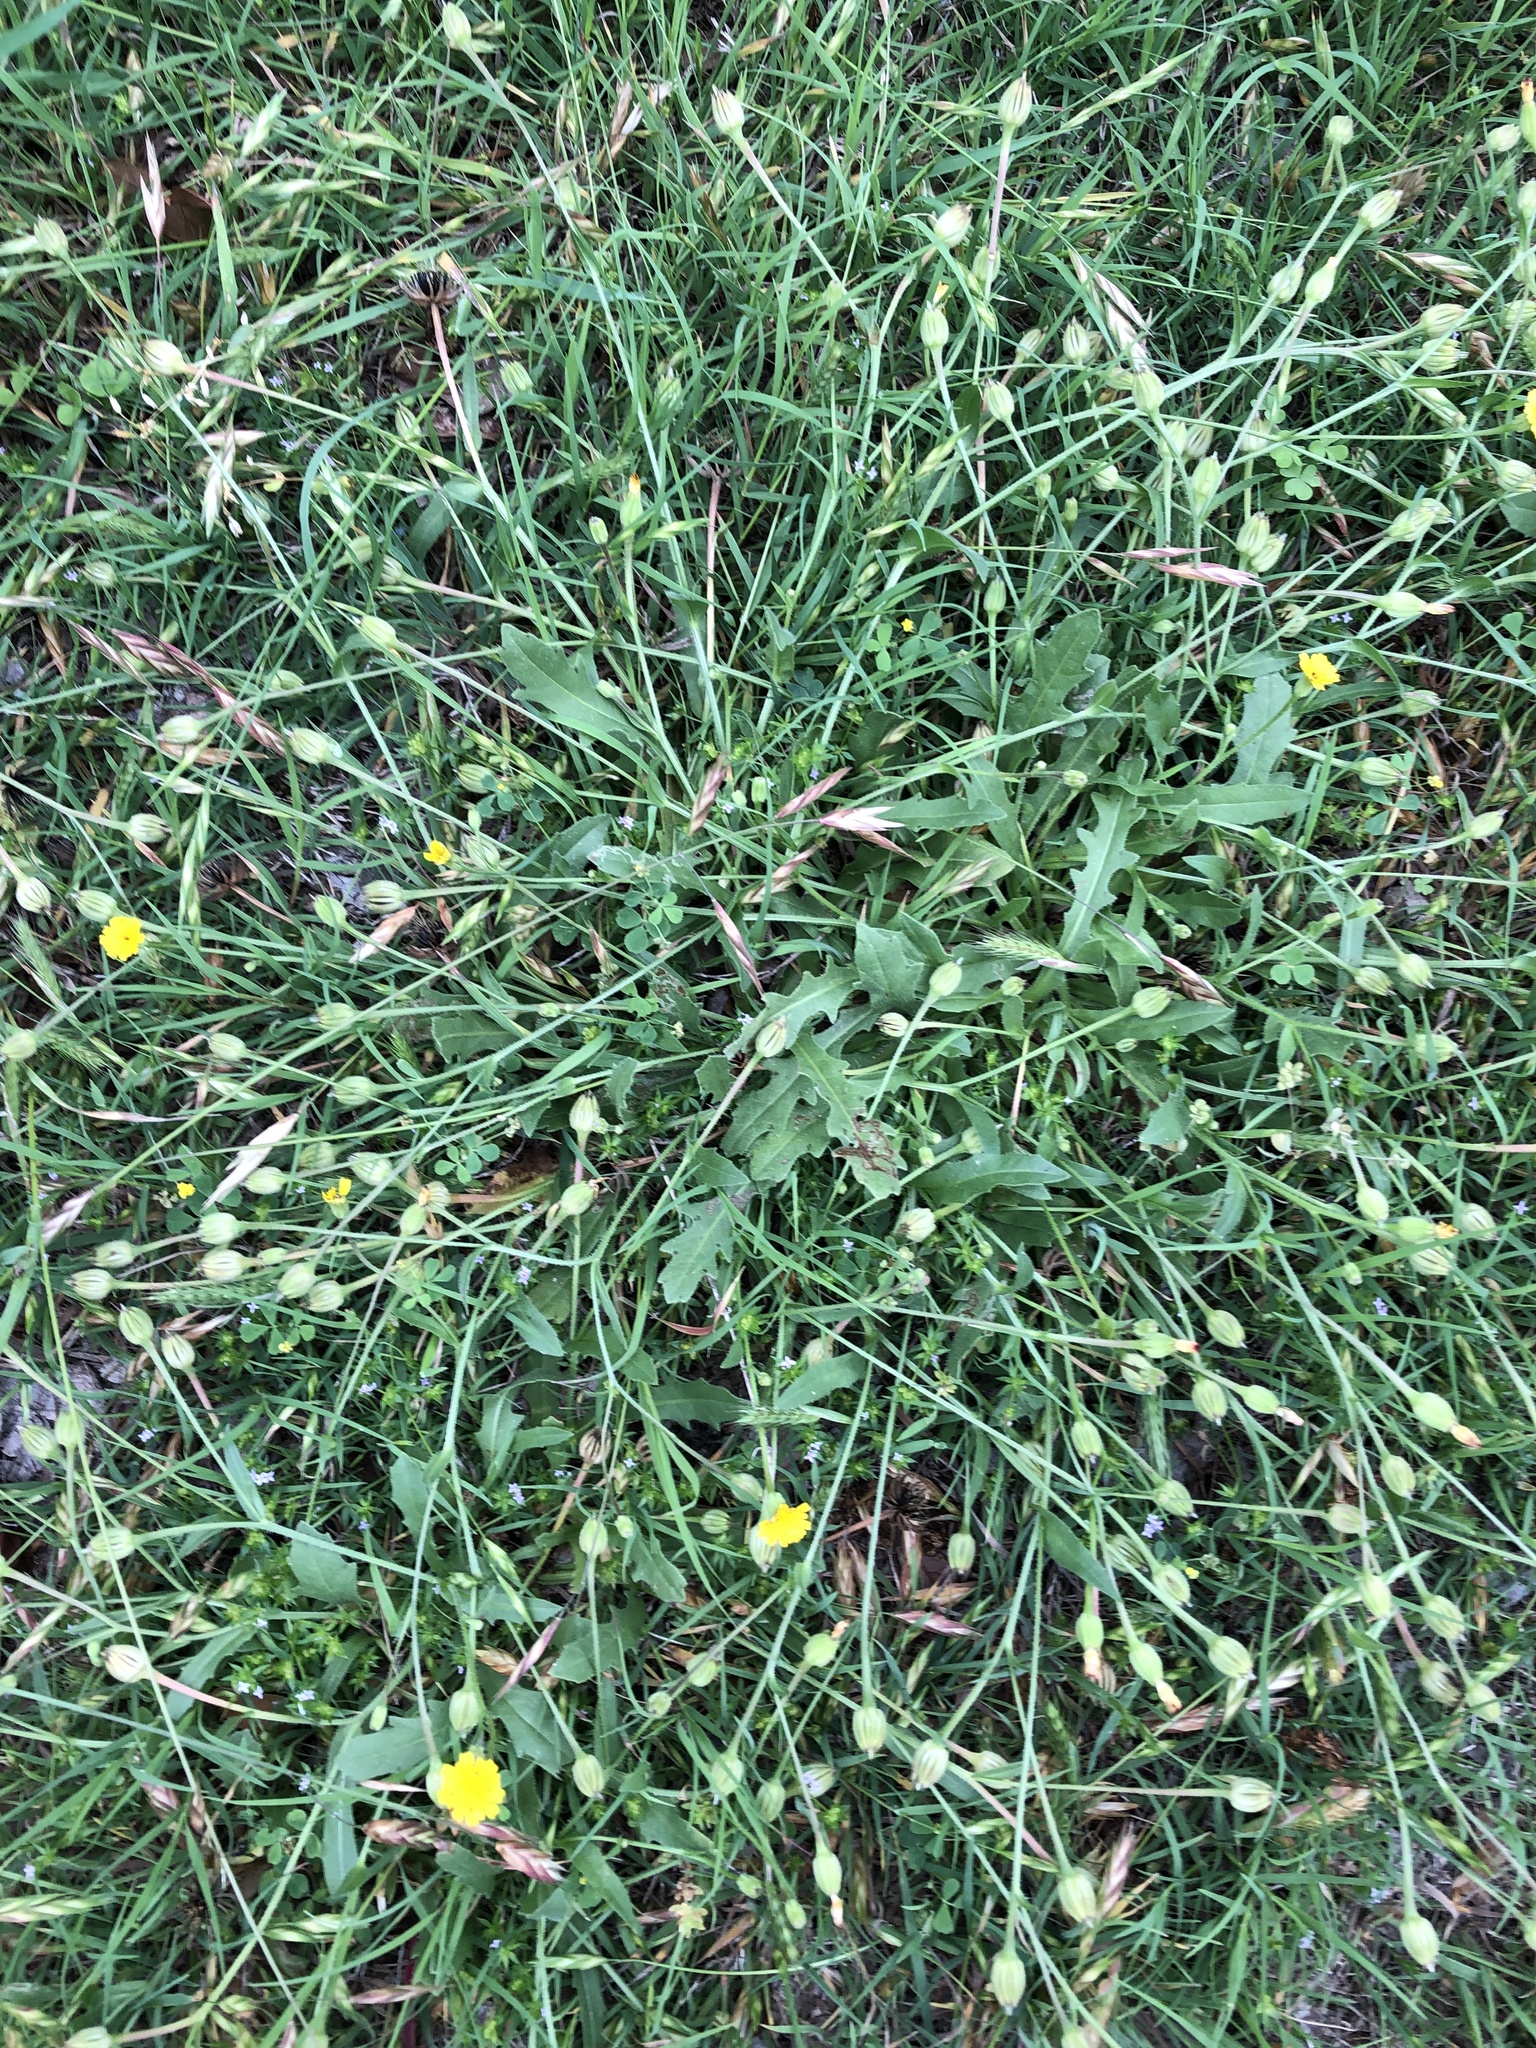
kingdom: Plantae
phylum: Tracheophyta
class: Magnoliopsida
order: Asterales
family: Asteraceae
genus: Hedypnois
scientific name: Hedypnois rhagadioloides
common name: Cretan weed
